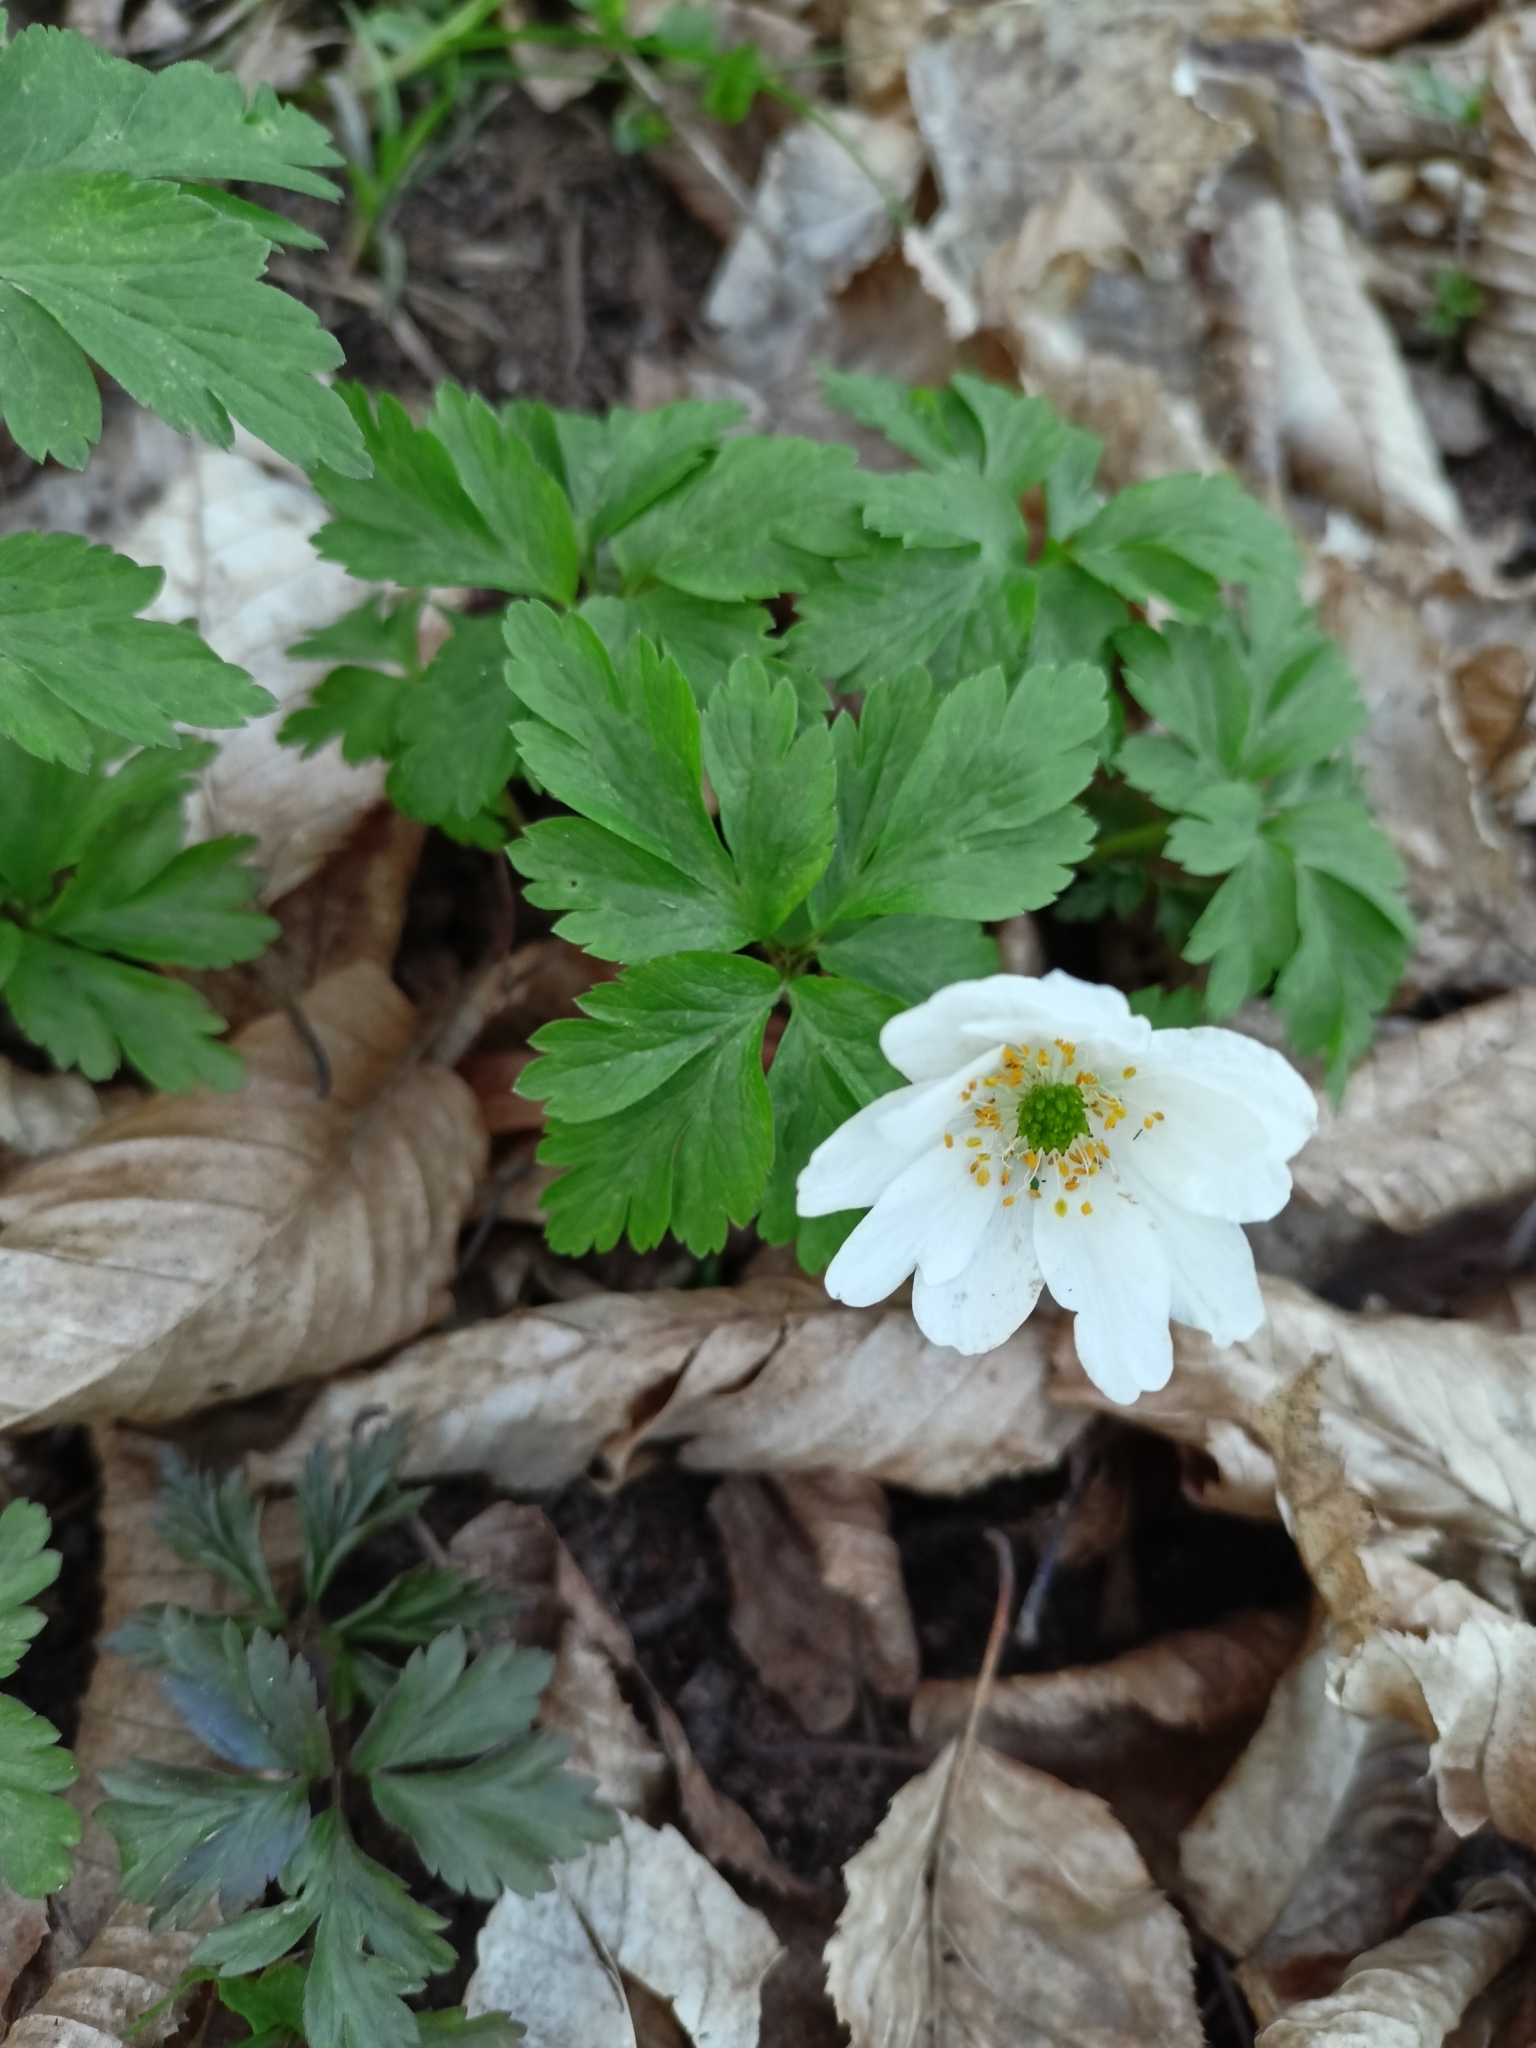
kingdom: Plantae
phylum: Tracheophyta
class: Magnoliopsida
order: Ranunculales
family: Ranunculaceae
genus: Anemone
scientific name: Anemone nemorosa
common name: Wood anemone
